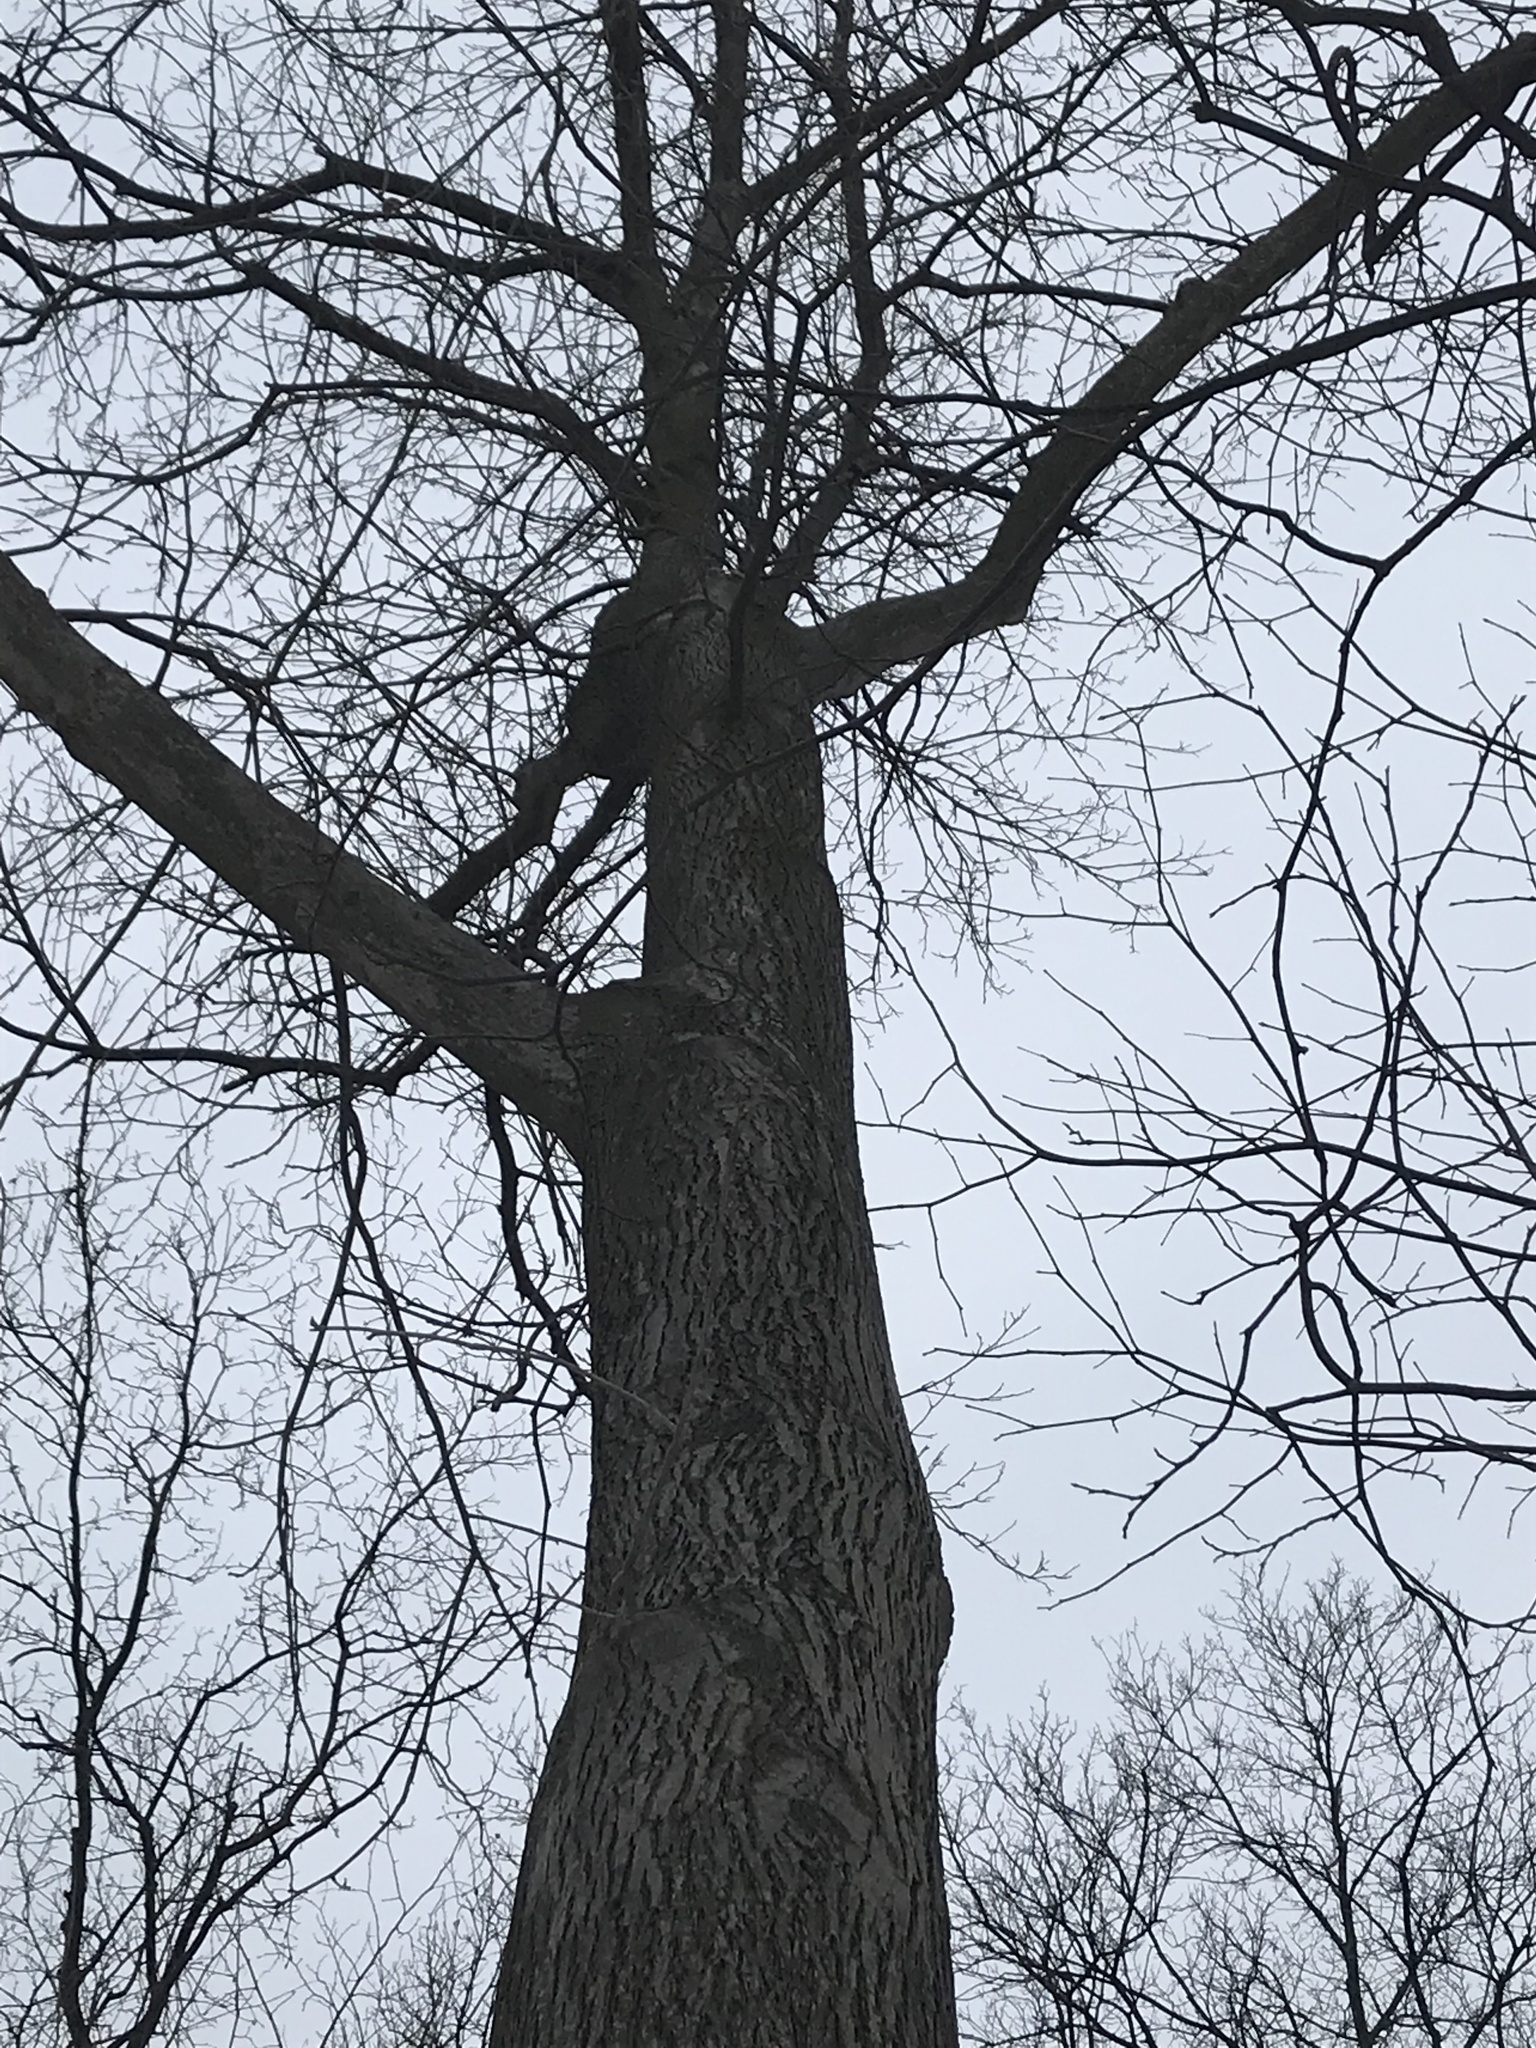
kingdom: Plantae
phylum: Tracheophyta
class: Magnoliopsida
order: Fagales
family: Juglandaceae
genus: Carya
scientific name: Carya cordiformis
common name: Bitternut hickory
